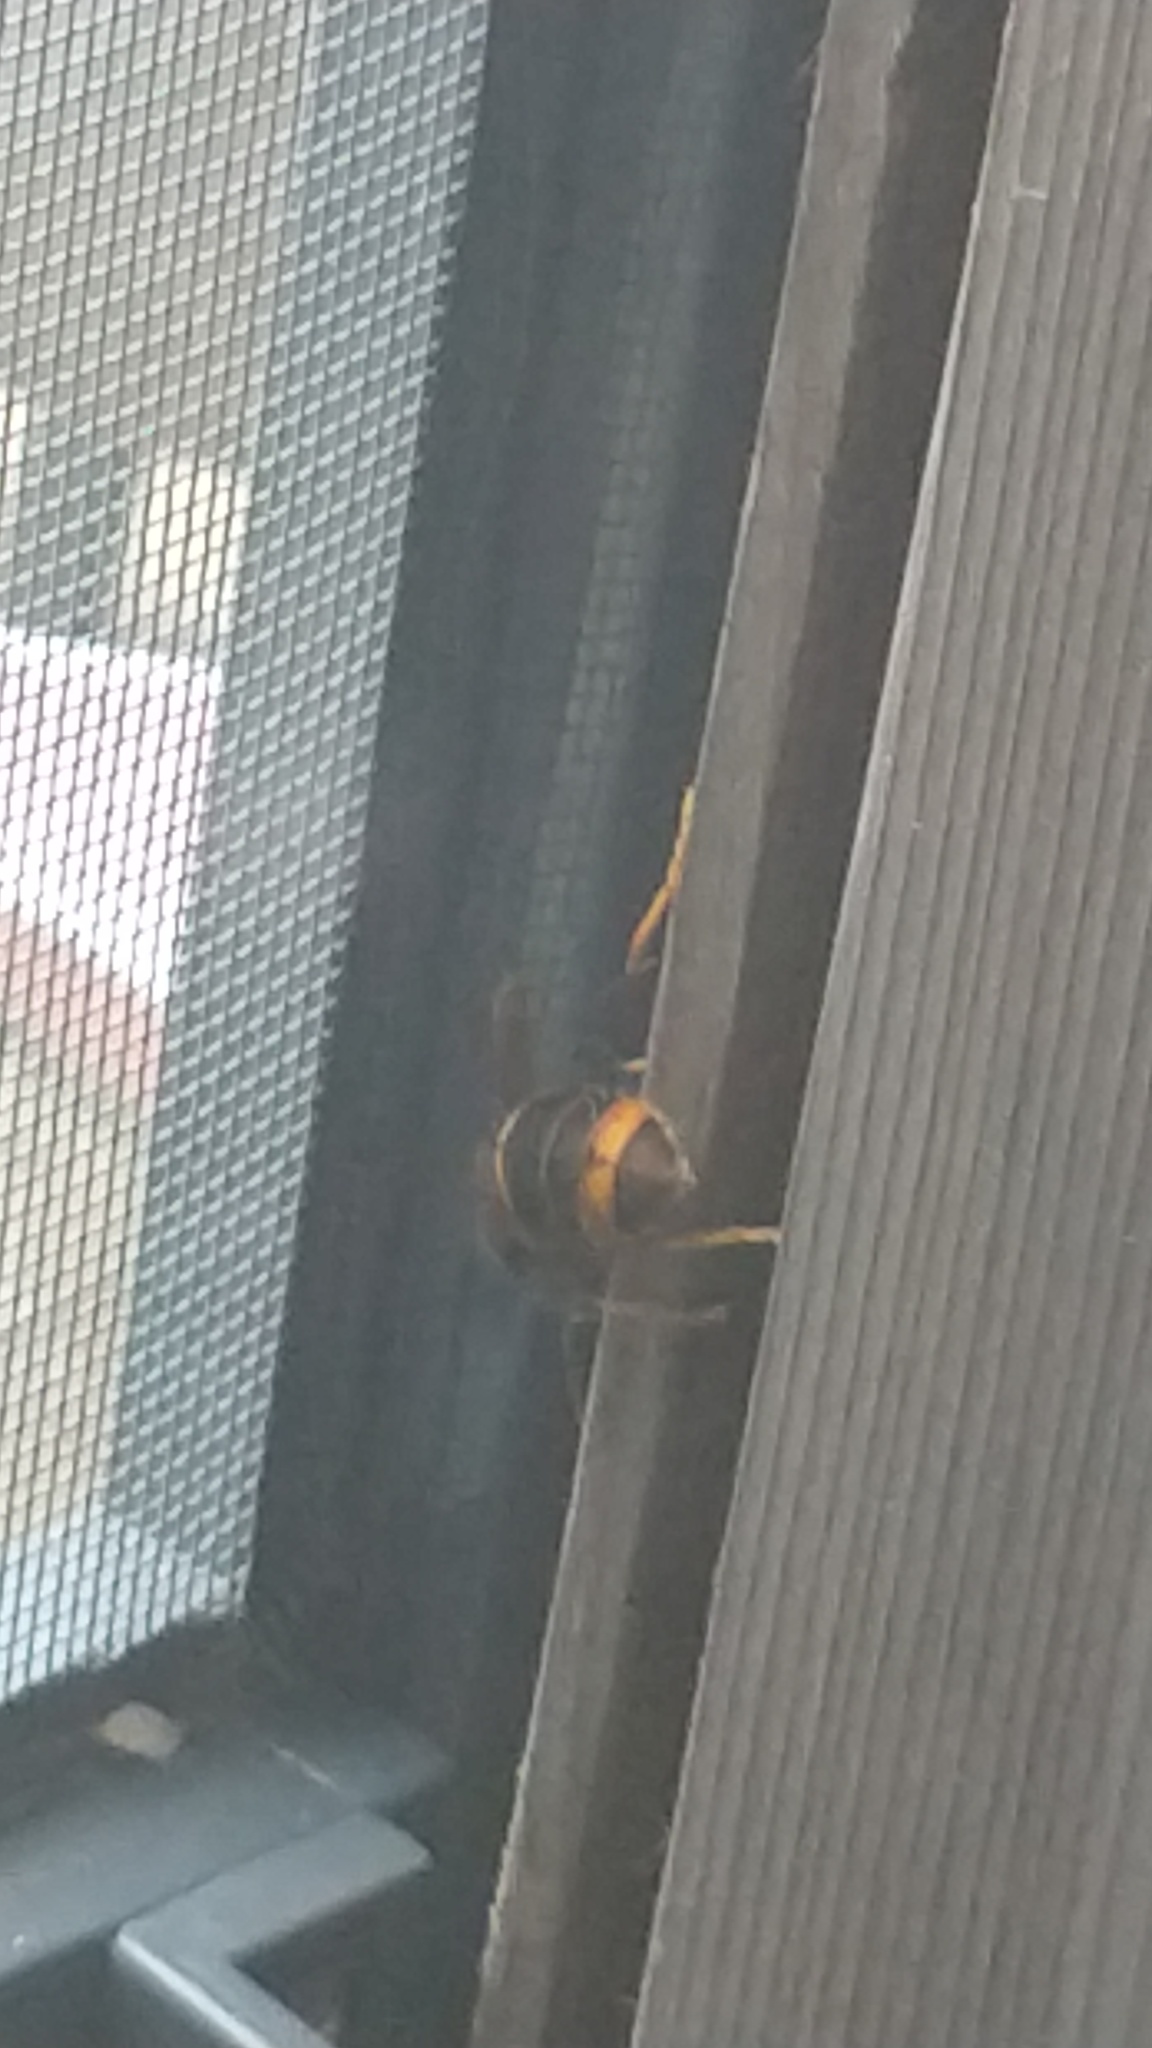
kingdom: Animalia
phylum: Arthropoda
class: Insecta
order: Hymenoptera
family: Vespidae
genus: Vespa
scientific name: Vespa velutina
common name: Asian hornet
